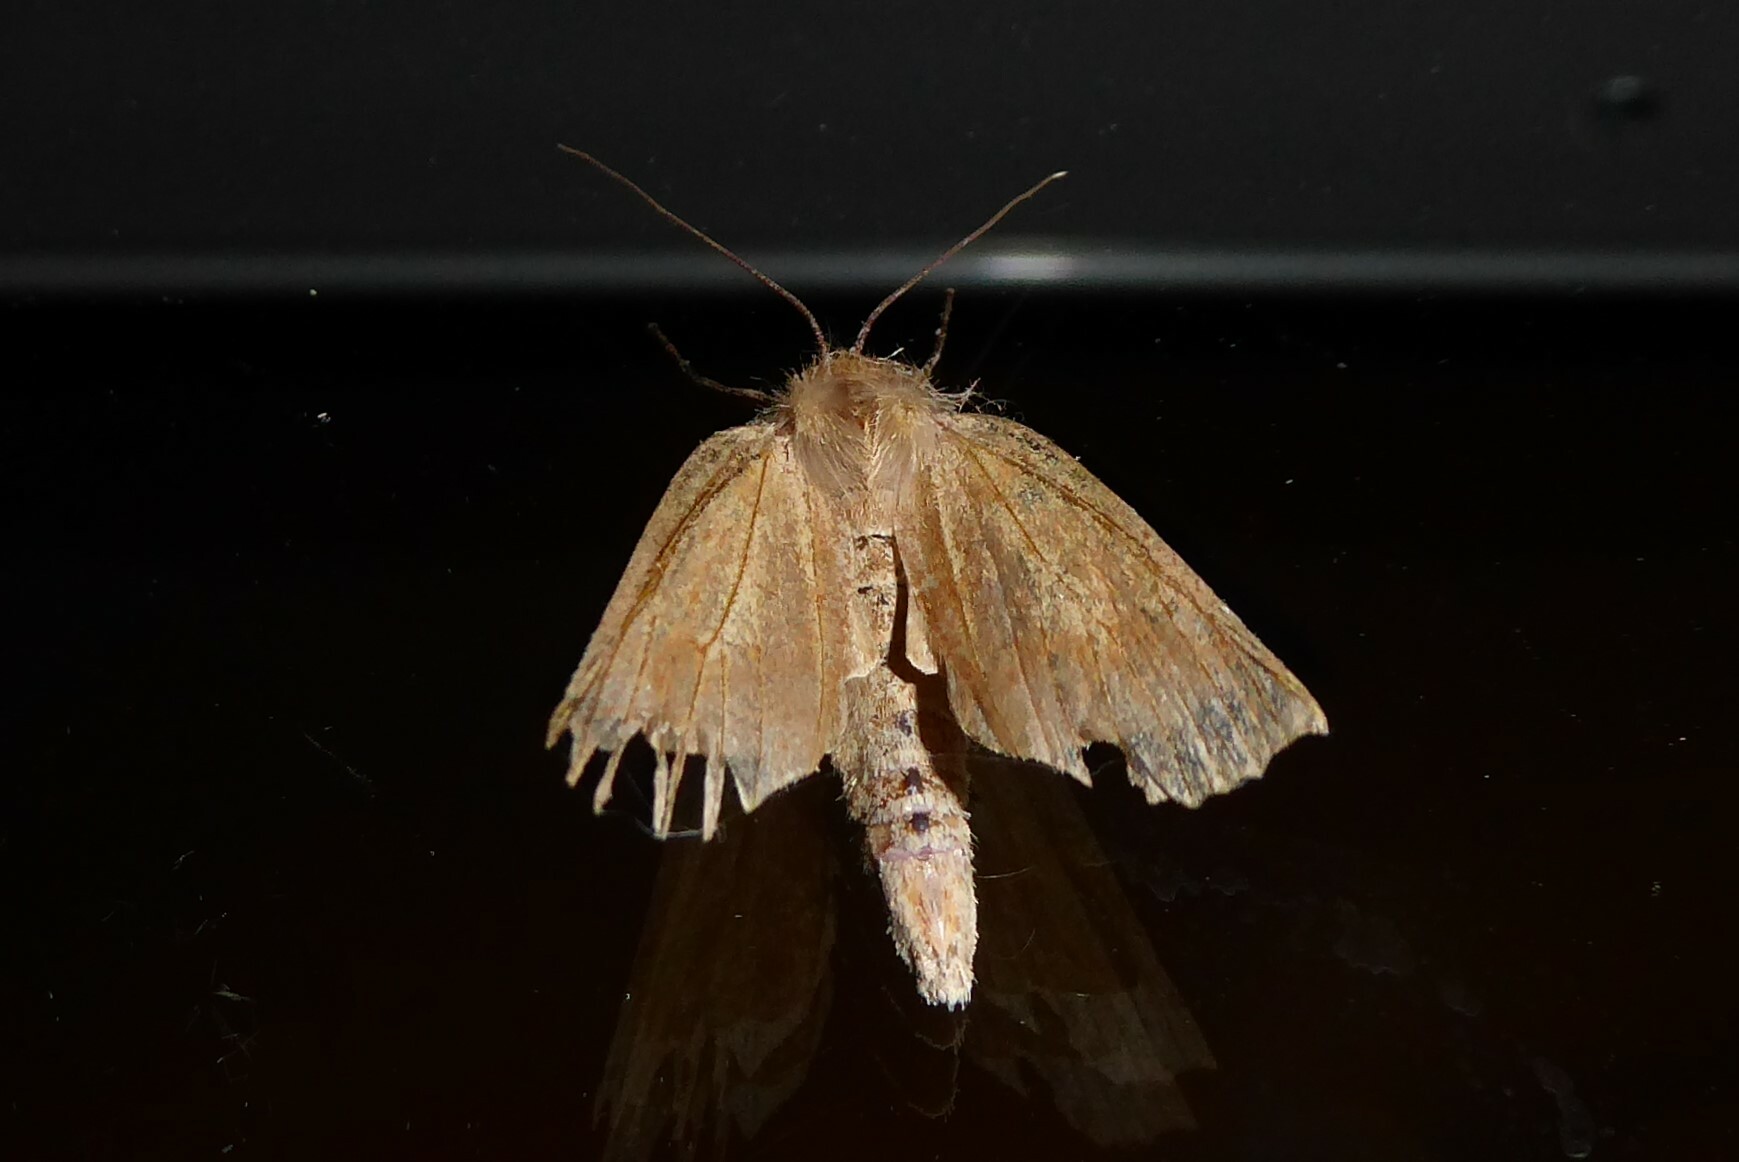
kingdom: Animalia
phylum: Arthropoda
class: Insecta
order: Lepidoptera
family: Geometridae
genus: Declana
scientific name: Declana leptomera
